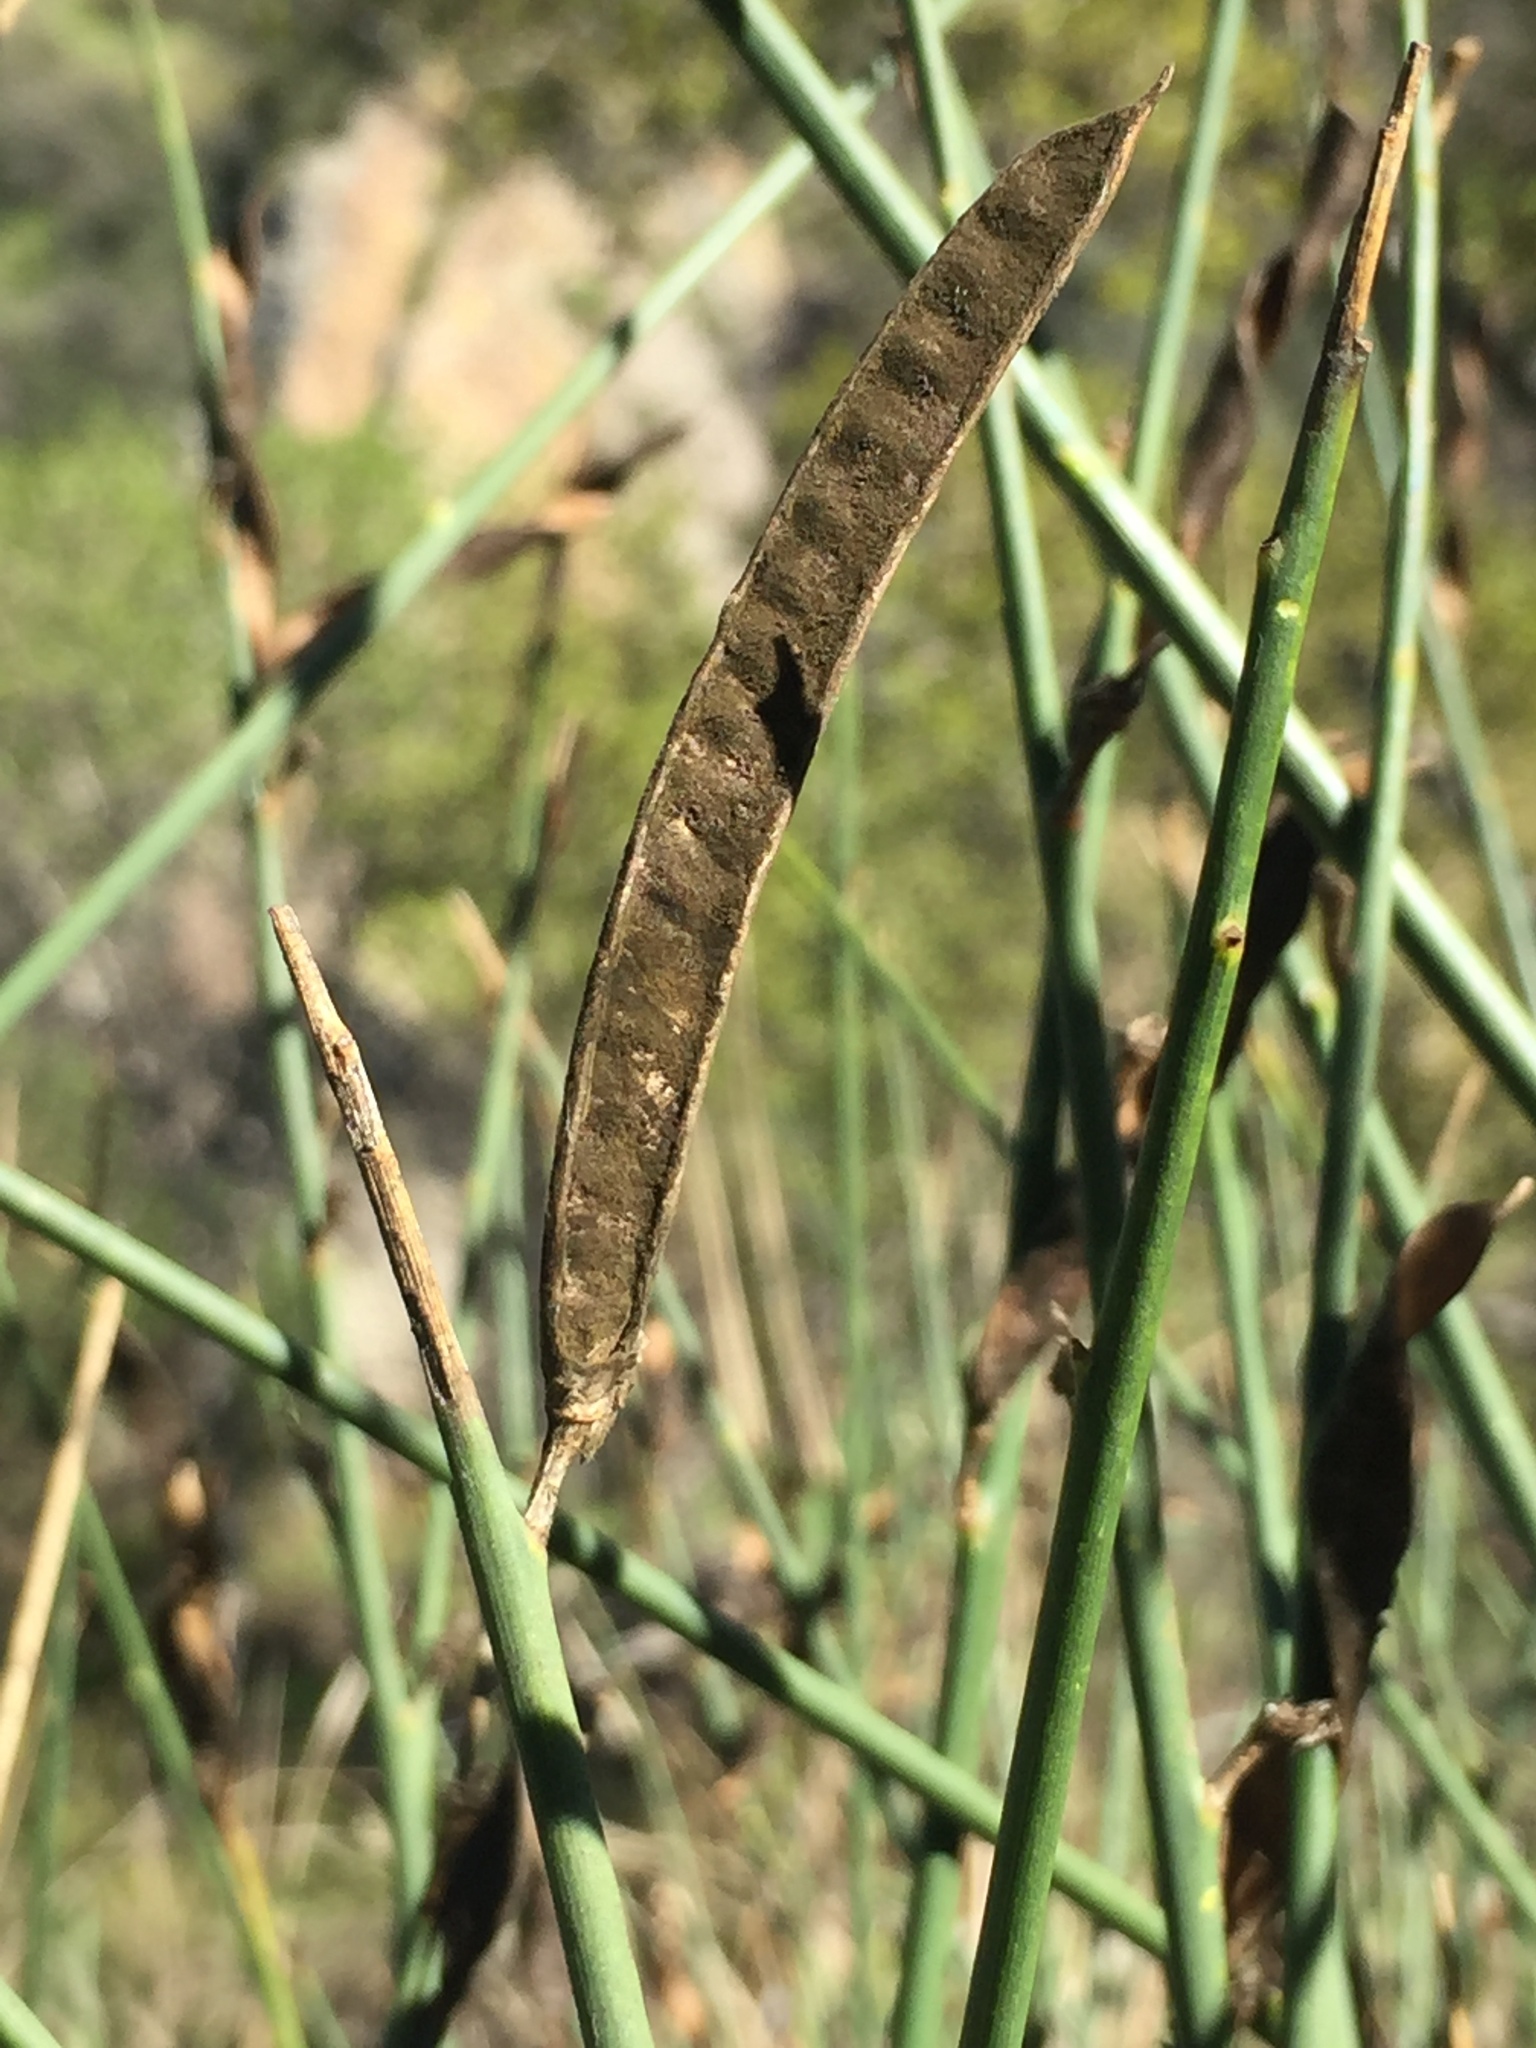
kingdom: Plantae
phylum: Tracheophyta
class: Magnoliopsida
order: Fabales
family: Fabaceae
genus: Spartium
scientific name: Spartium junceum
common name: Spanish broom
